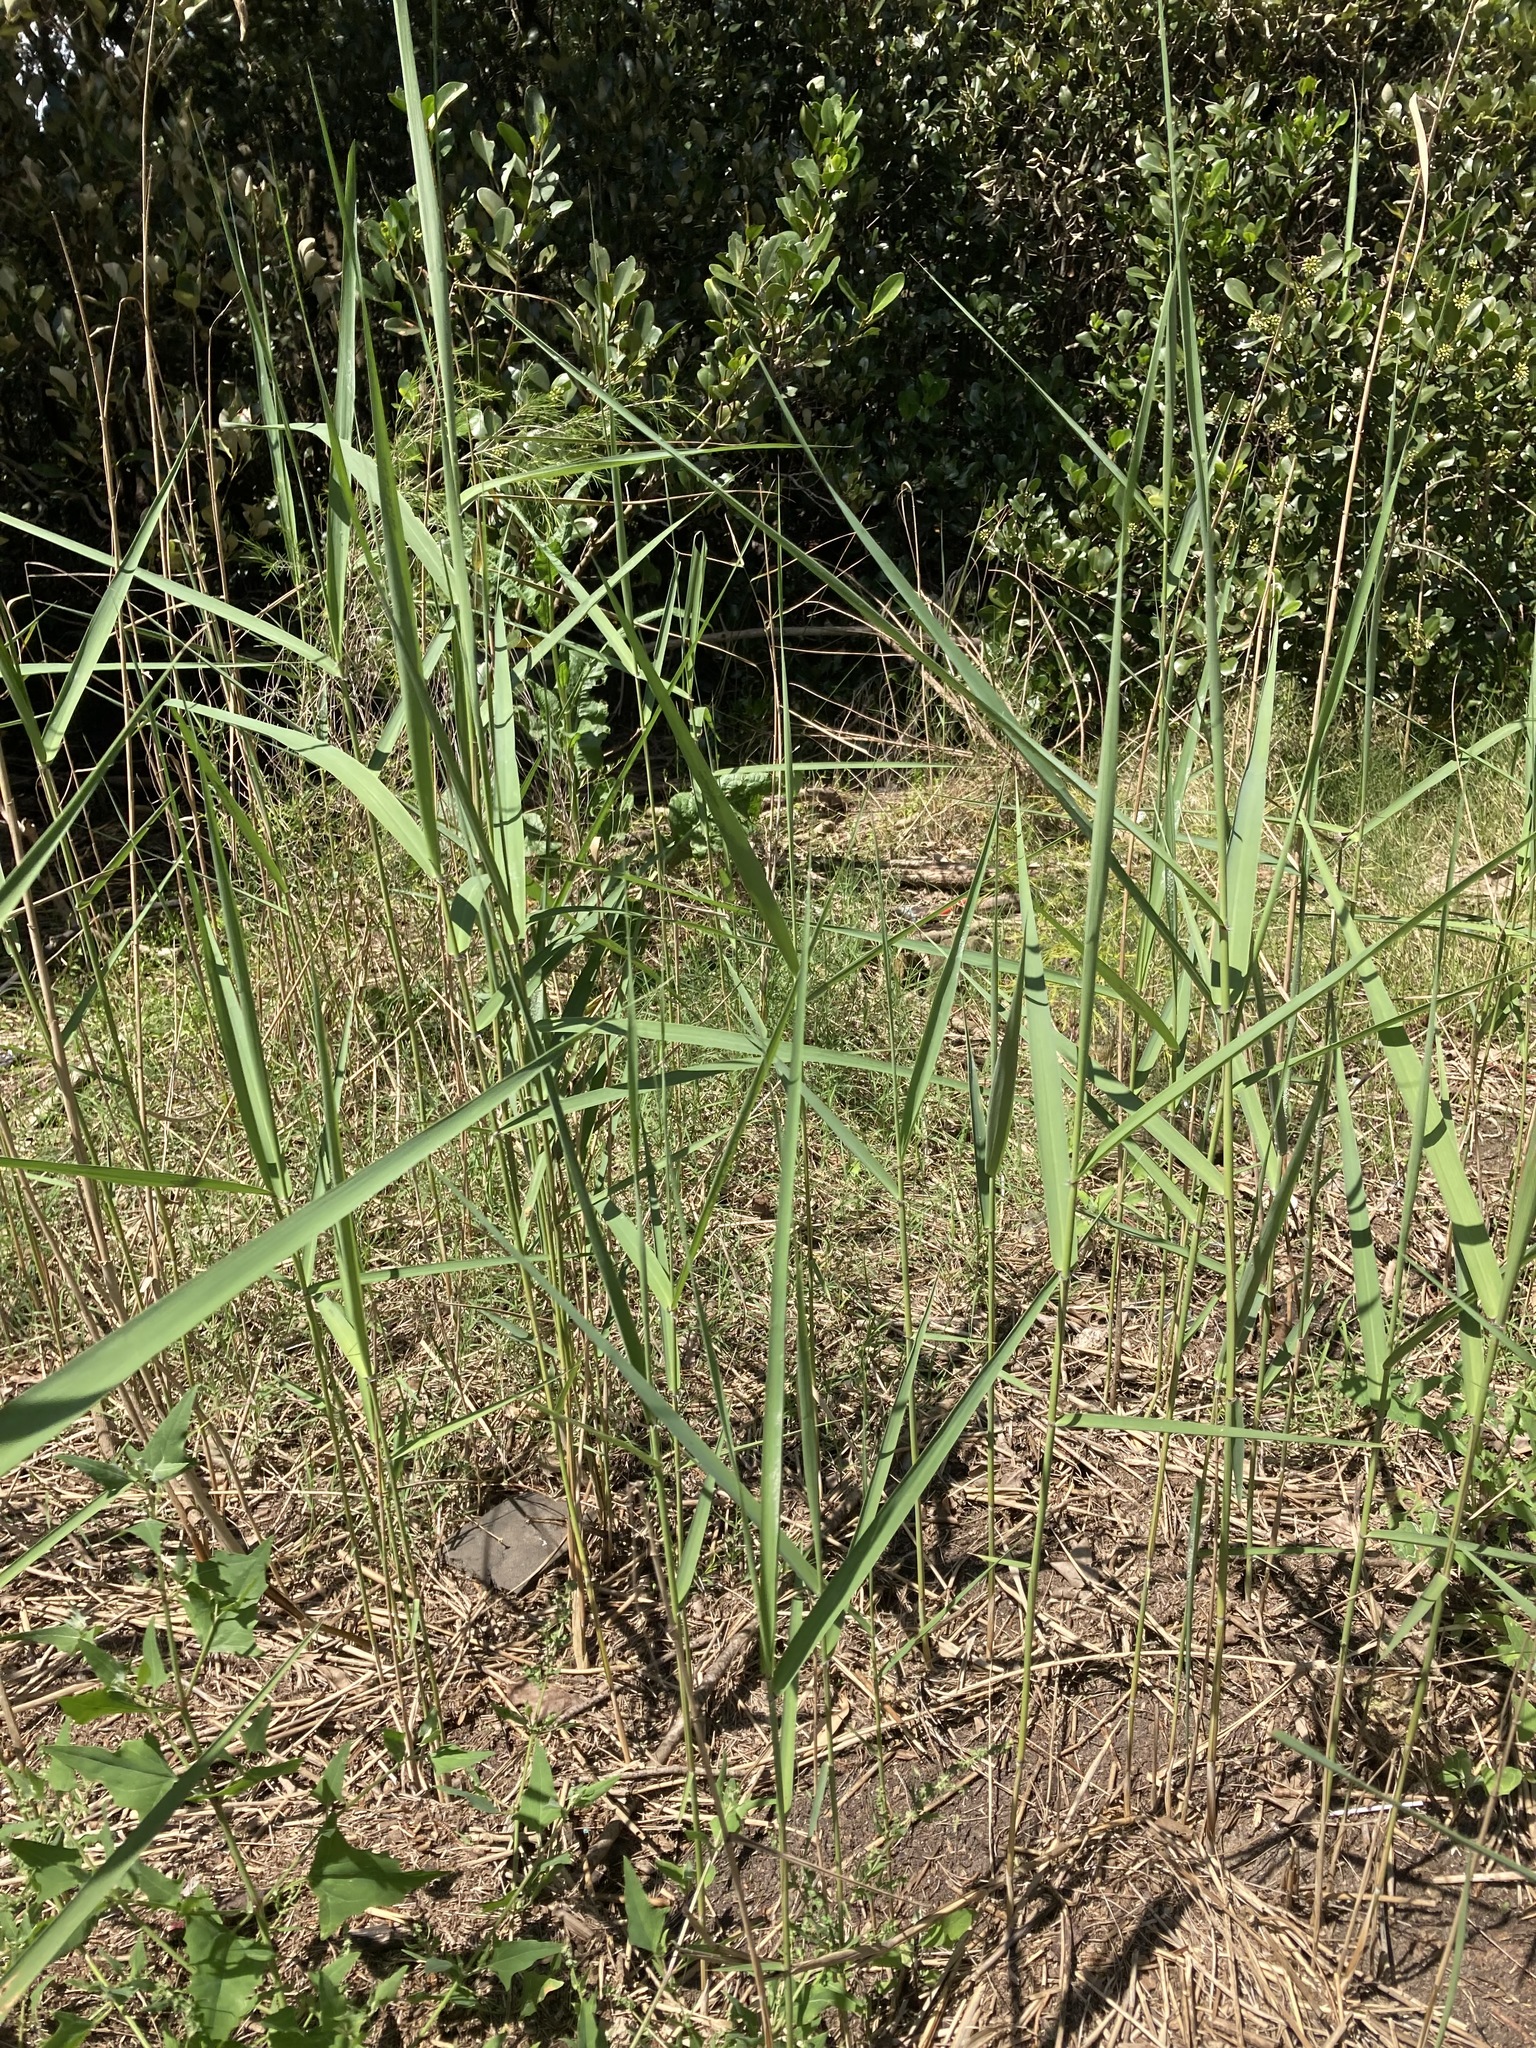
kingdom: Plantae
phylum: Tracheophyta
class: Liliopsida
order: Poales
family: Poaceae
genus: Phragmites
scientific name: Phragmites australis
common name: Common reed
